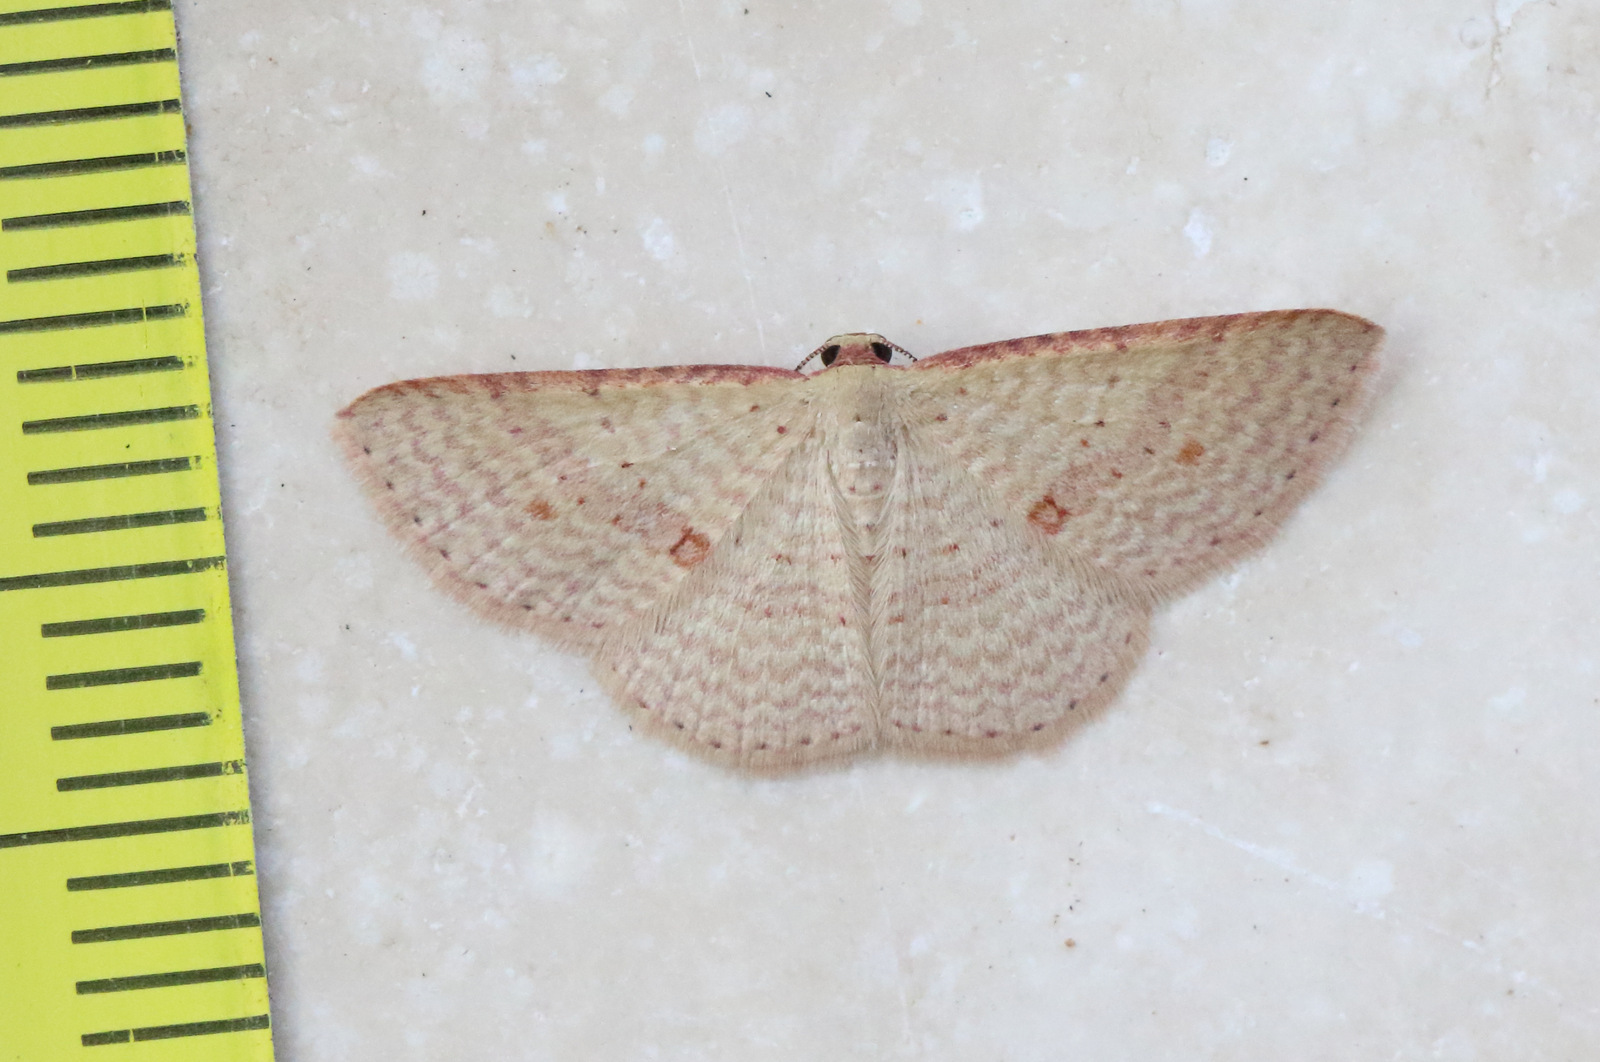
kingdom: Animalia
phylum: Arthropoda
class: Insecta
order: Lepidoptera
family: Geometridae
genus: Epicyme
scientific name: Epicyme rubropunctaria
